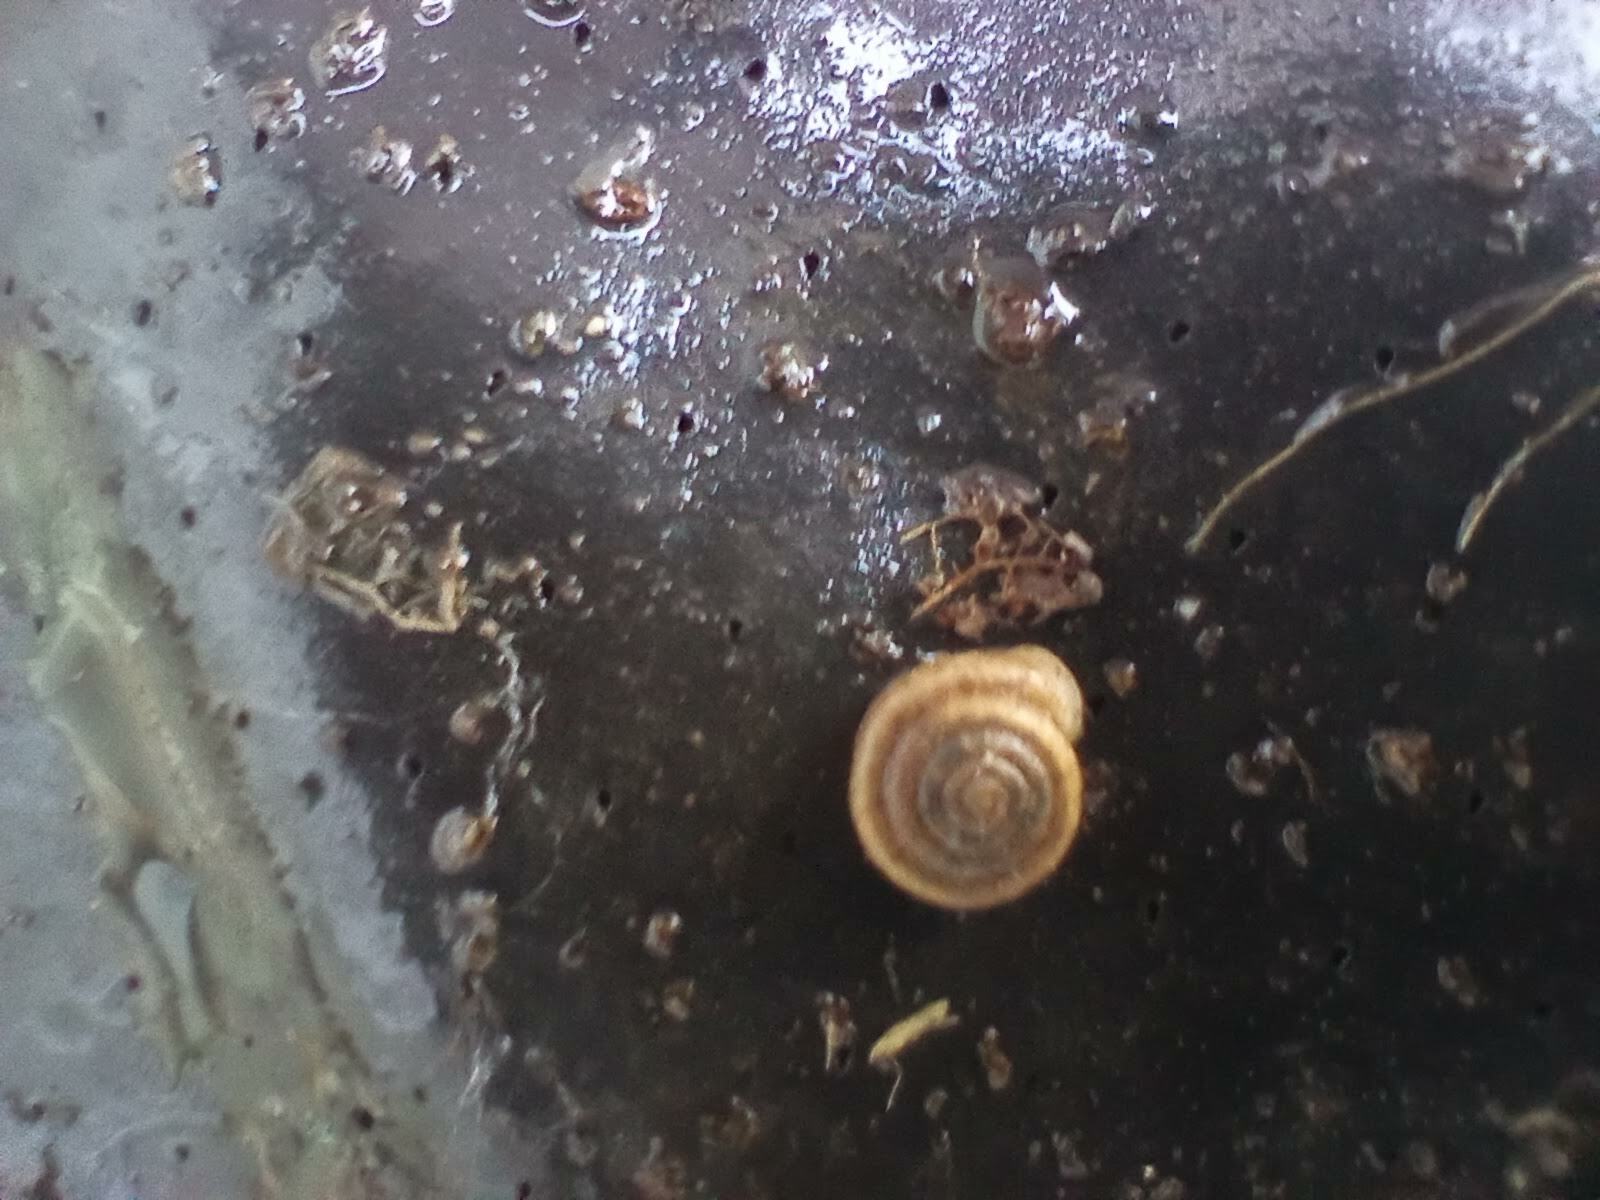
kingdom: Animalia
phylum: Mollusca
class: Gastropoda
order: Stylommatophora
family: Polygyridae
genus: Polygyra
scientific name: Polygyra cereolus
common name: Southern flatcone snail
